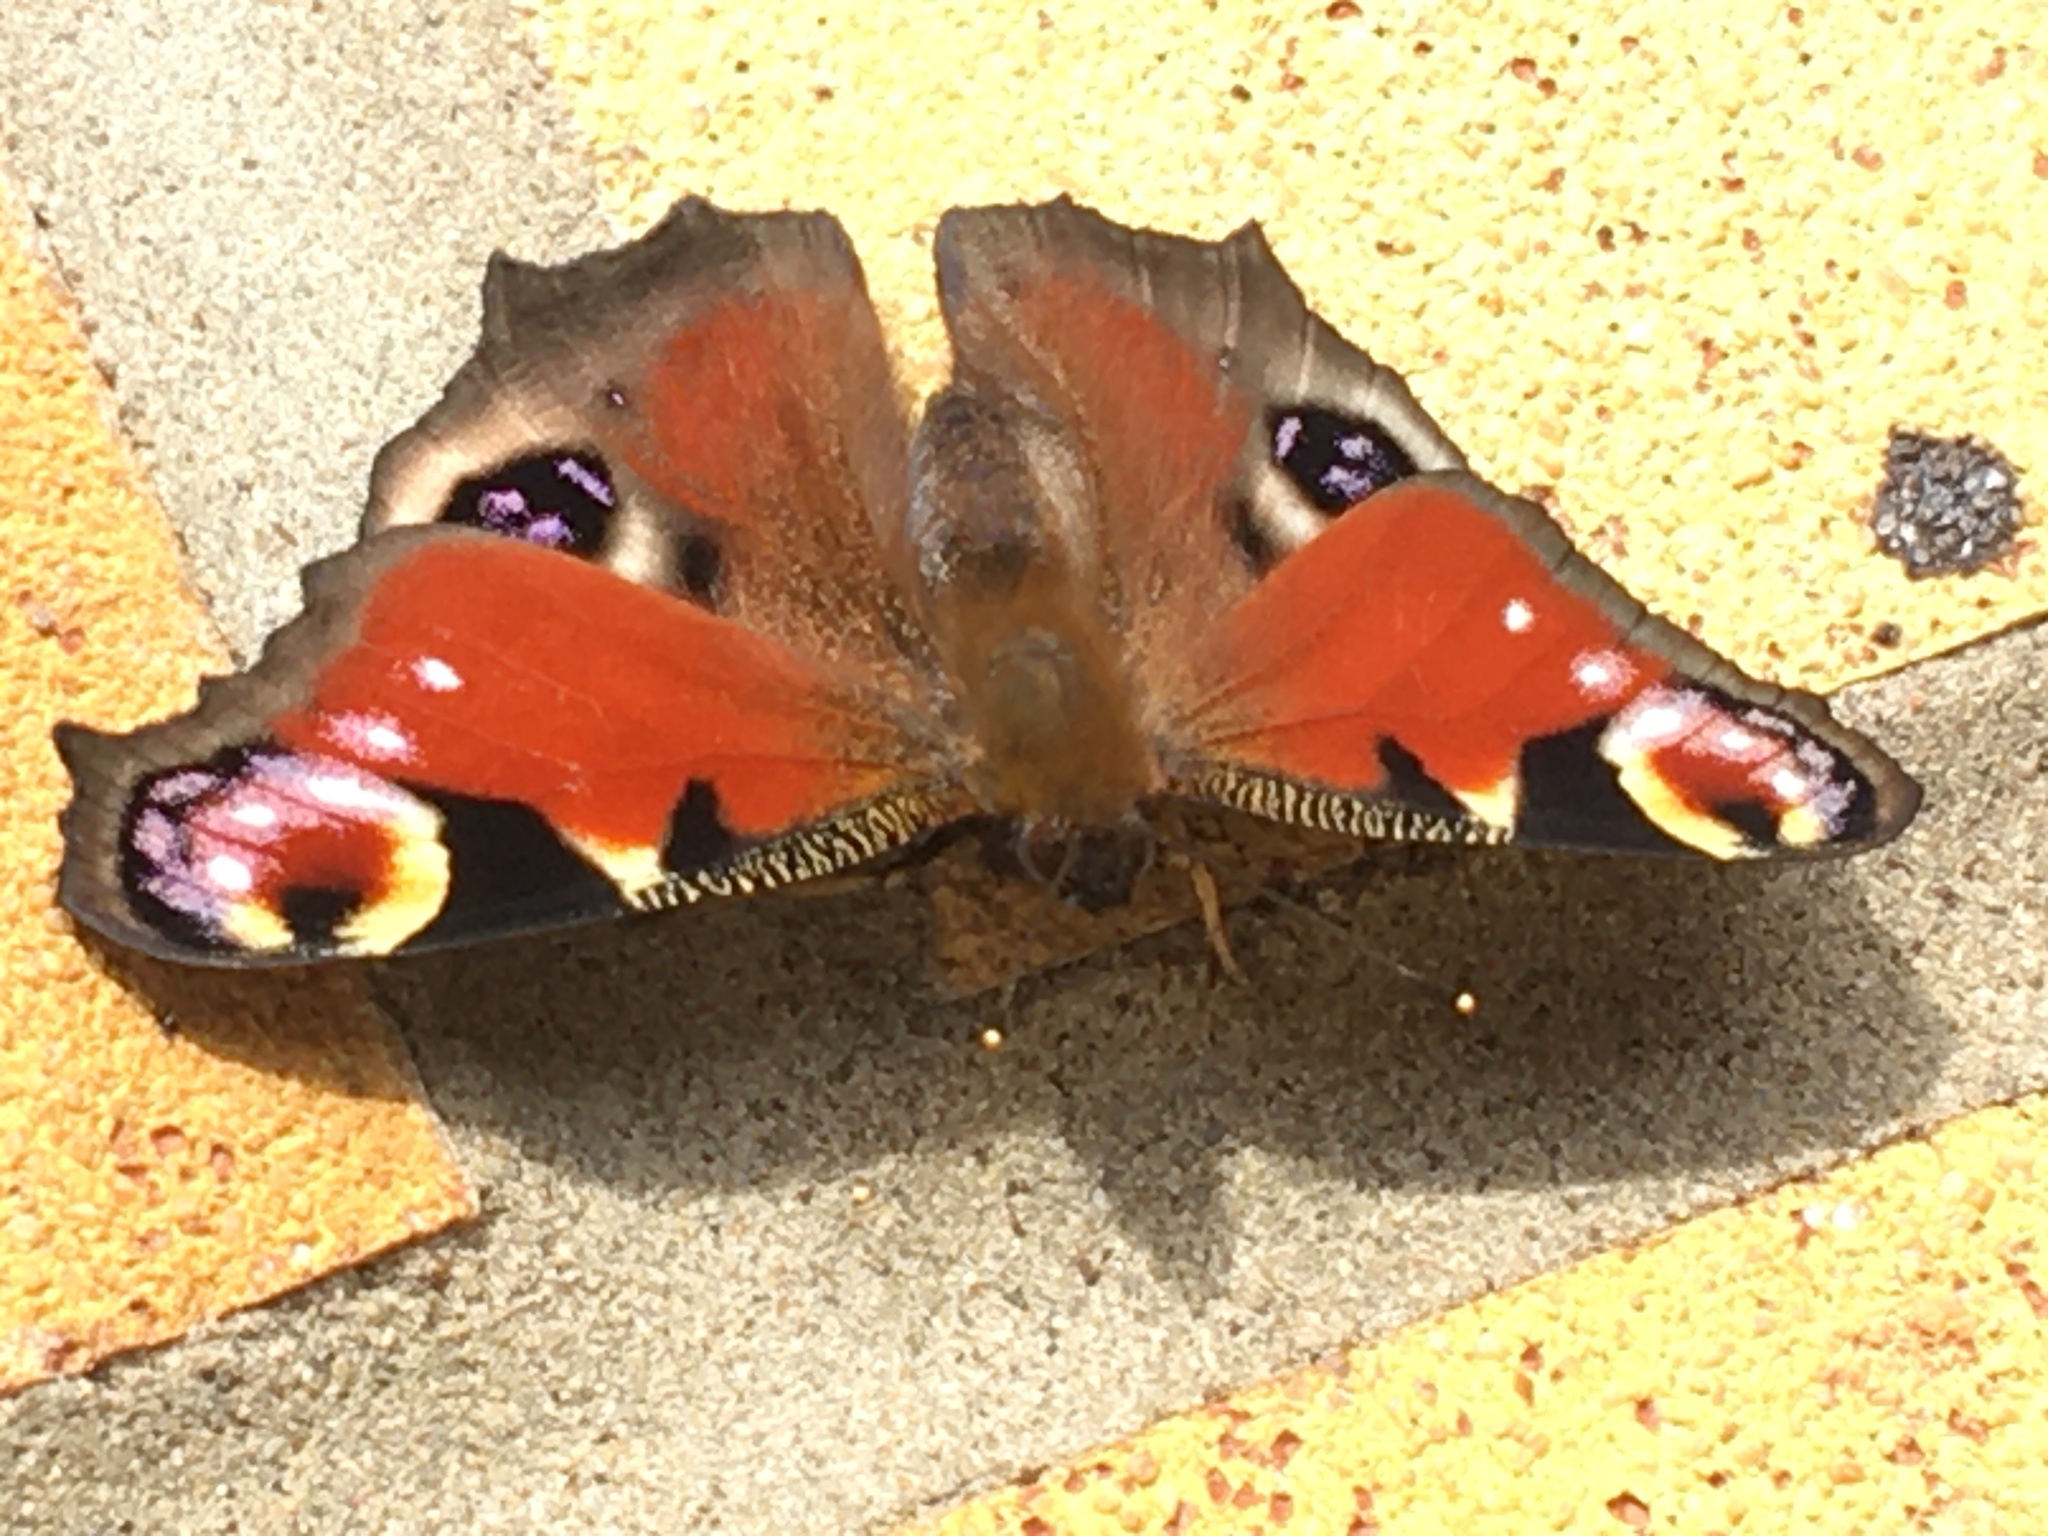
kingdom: Animalia
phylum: Arthropoda
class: Insecta
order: Lepidoptera
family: Nymphalidae
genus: Aglais
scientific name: Aglais io
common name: Peacock
